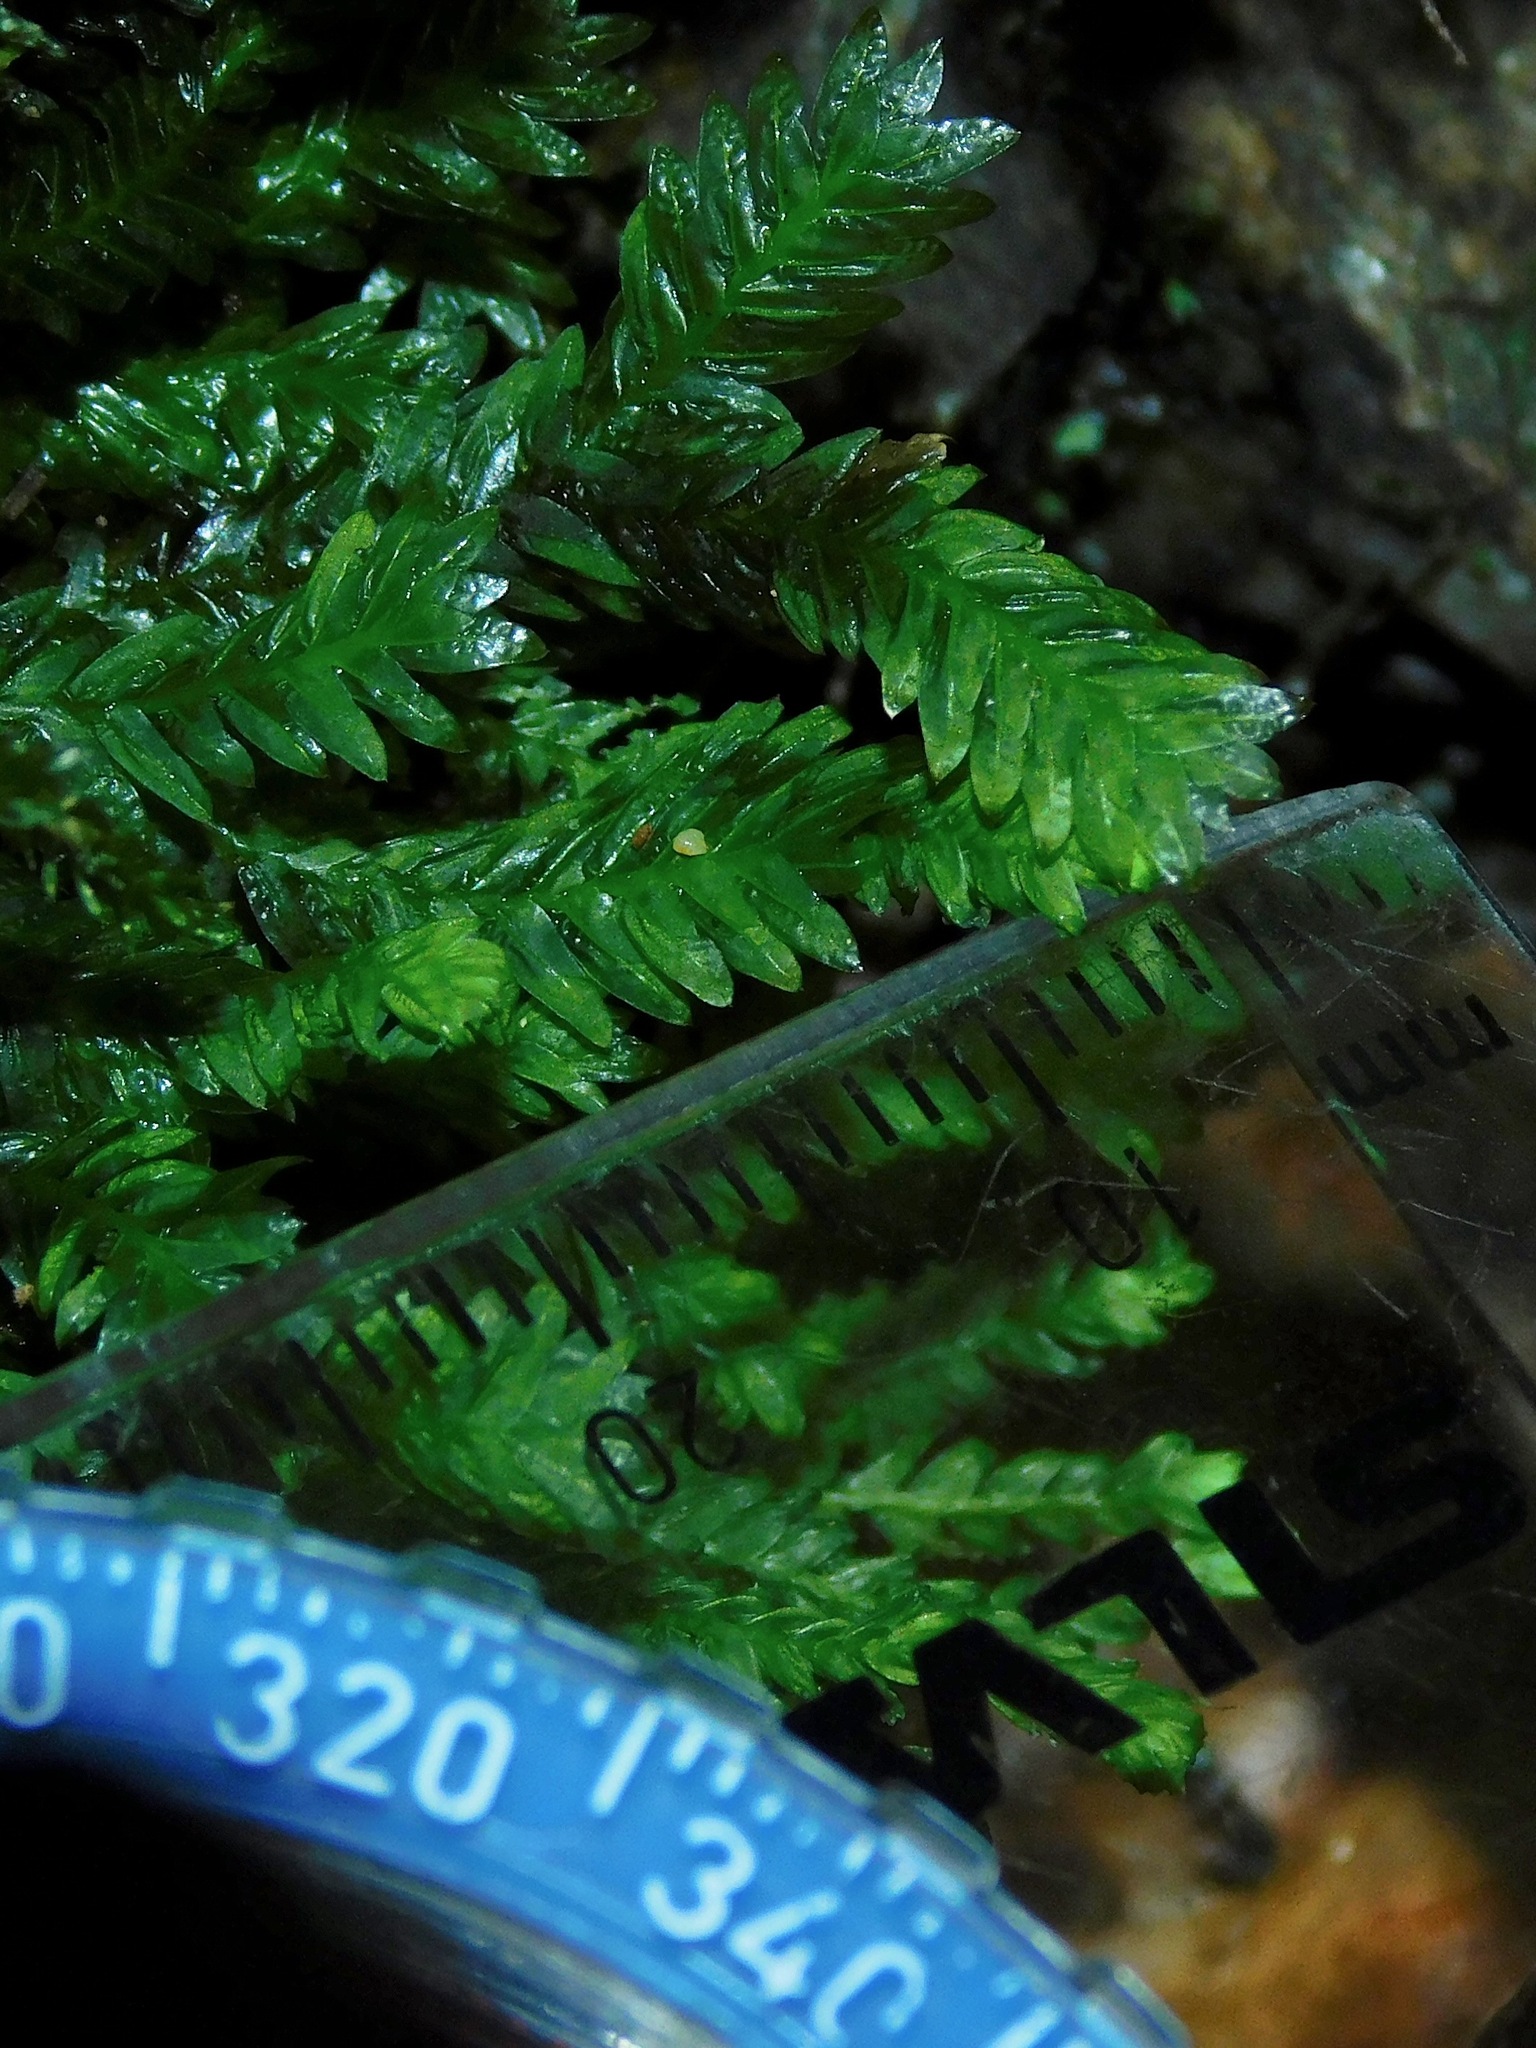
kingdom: Plantae
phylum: Bryophyta
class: Bryopsida
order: Dicranales
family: Fissidentaceae
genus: Fissidens
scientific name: Fissidens adianthoides
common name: Maidenhair pocket moss
